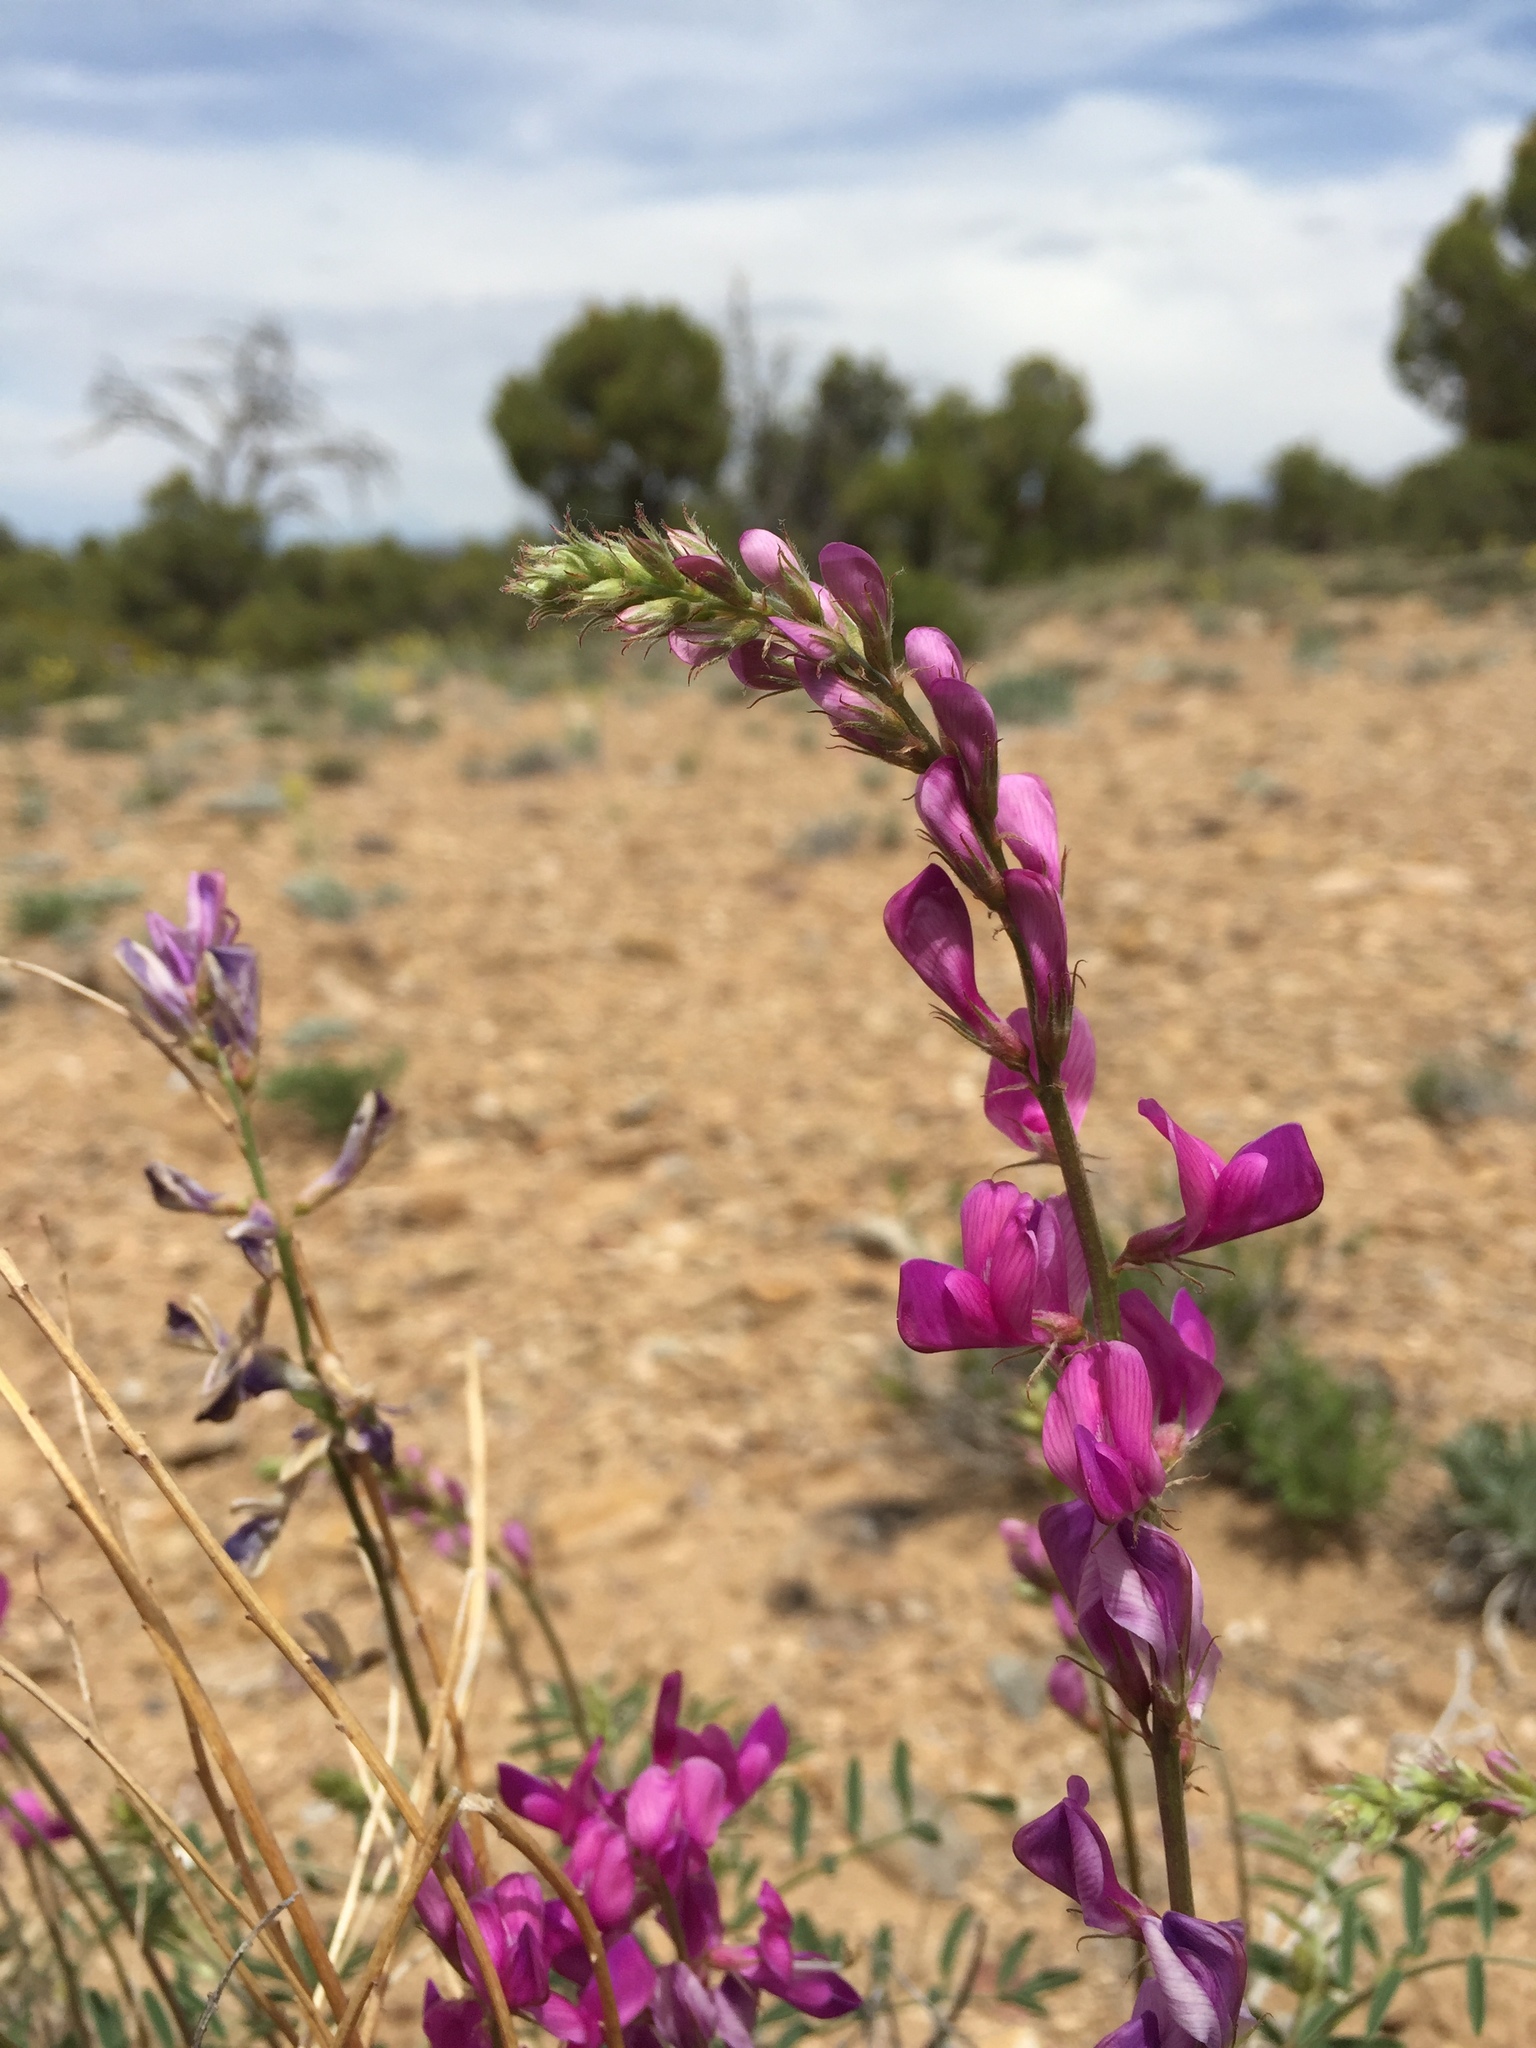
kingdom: Plantae
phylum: Tracheophyta
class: Magnoliopsida
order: Fabales
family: Fabaceae
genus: Hedysarum
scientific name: Hedysarum boreale
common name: Northern sweet-vetch
